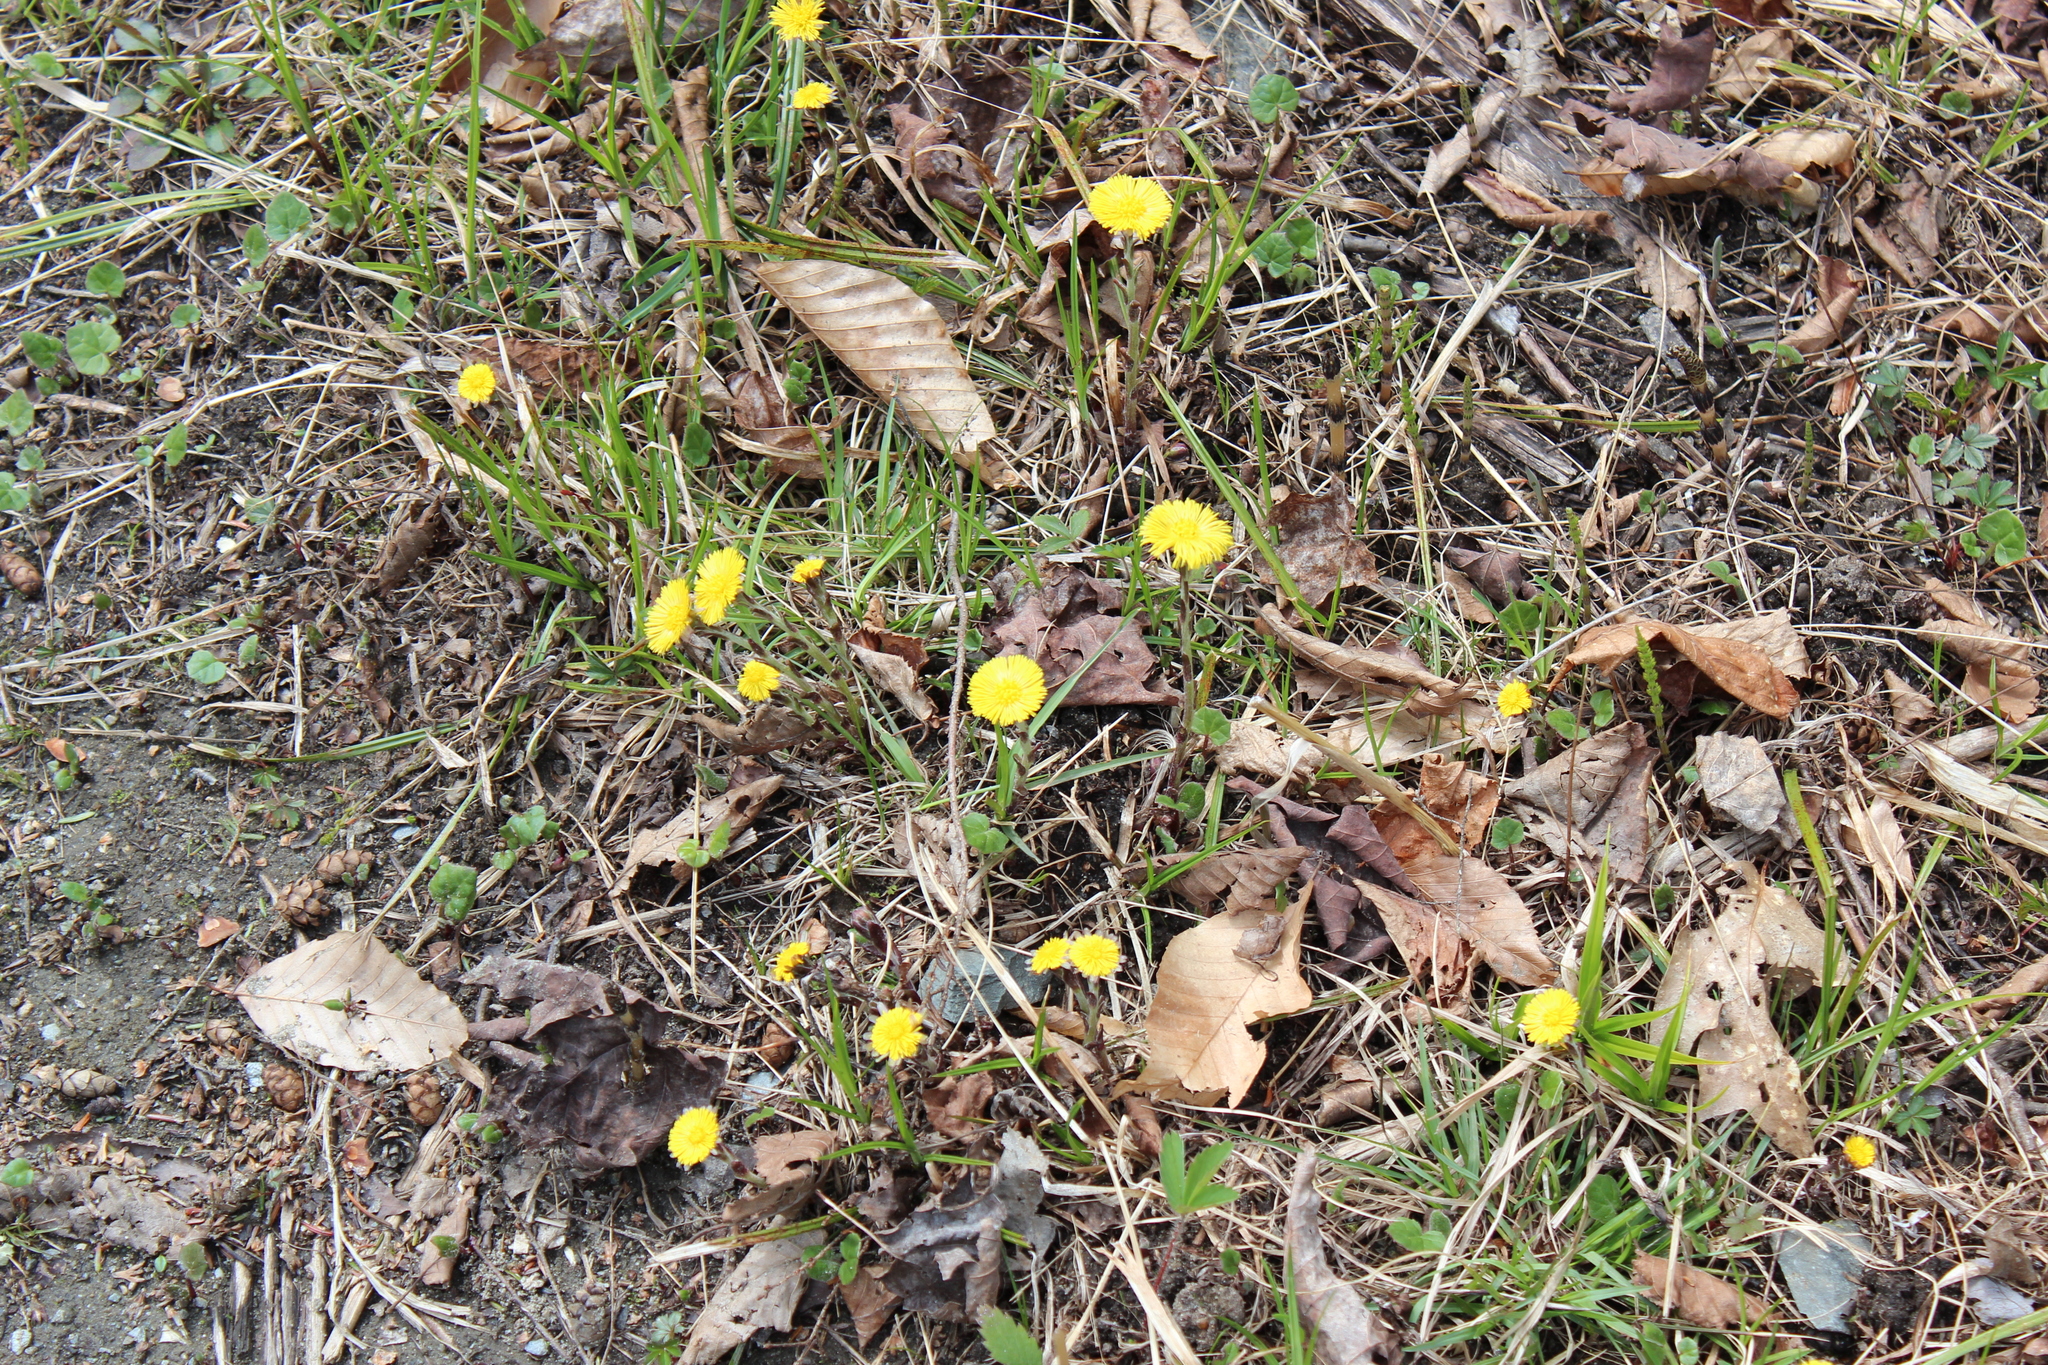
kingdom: Plantae
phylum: Tracheophyta
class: Magnoliopsida
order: Asterales
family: Asteraceae
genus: Tussilago
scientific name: Tussilago farfara
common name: Coltsfoot
